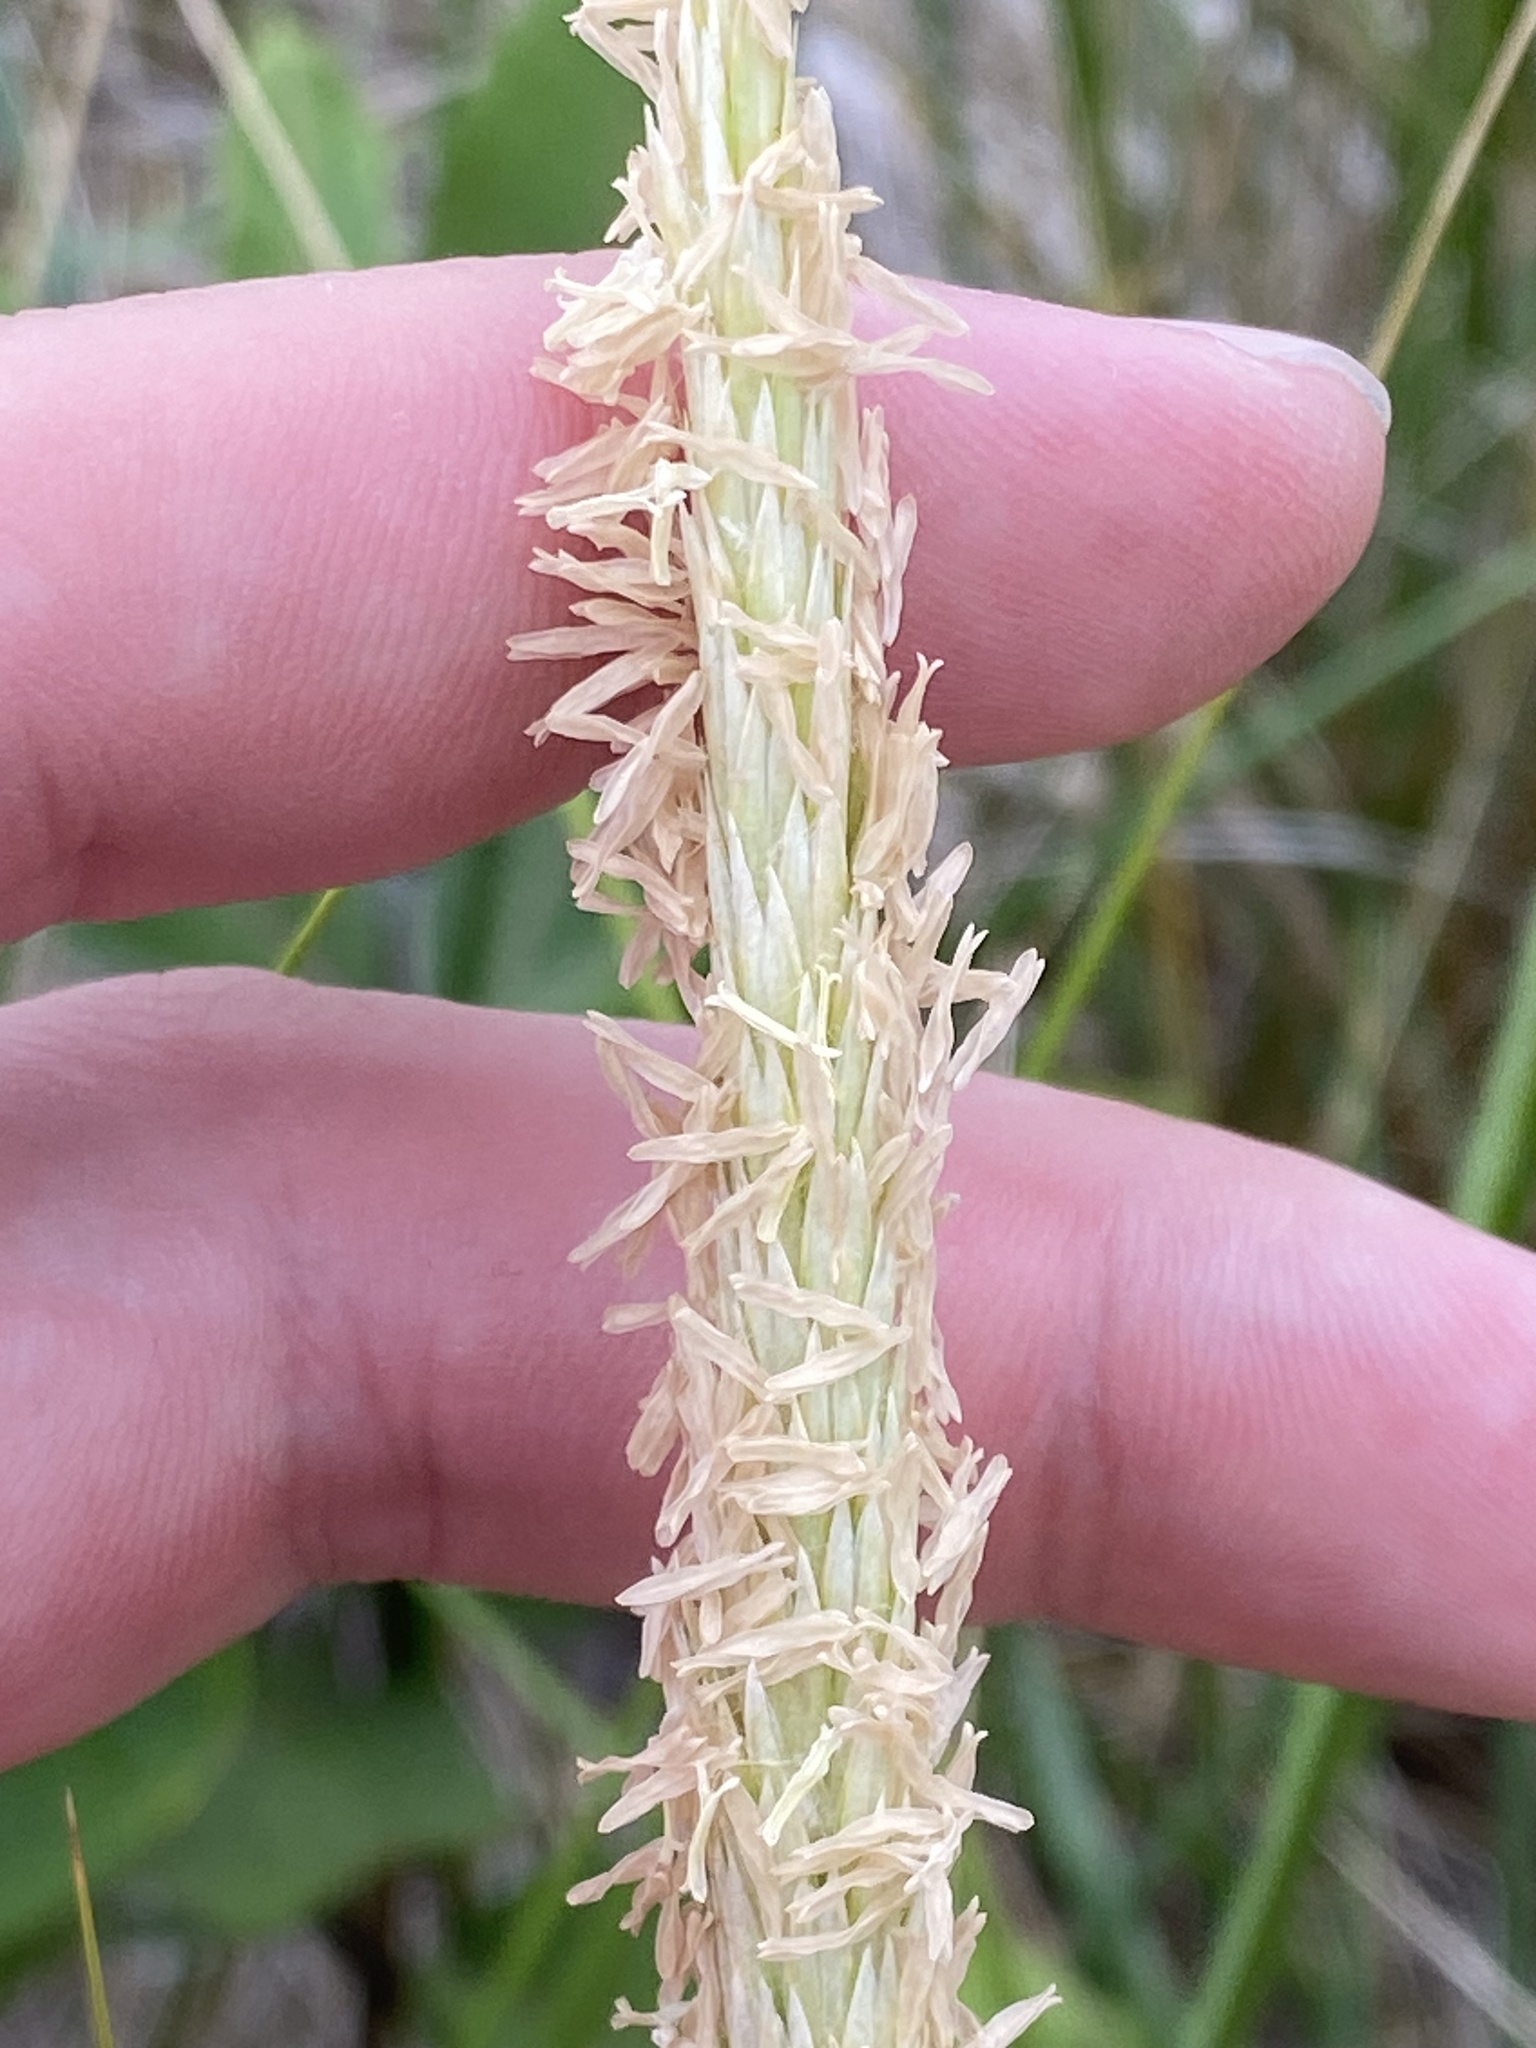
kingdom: Plantae
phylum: Tracheophyta
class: Liliopsida
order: Poales
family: Poaceae
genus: Calamagrostis
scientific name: Calamagrostis breviligulata
